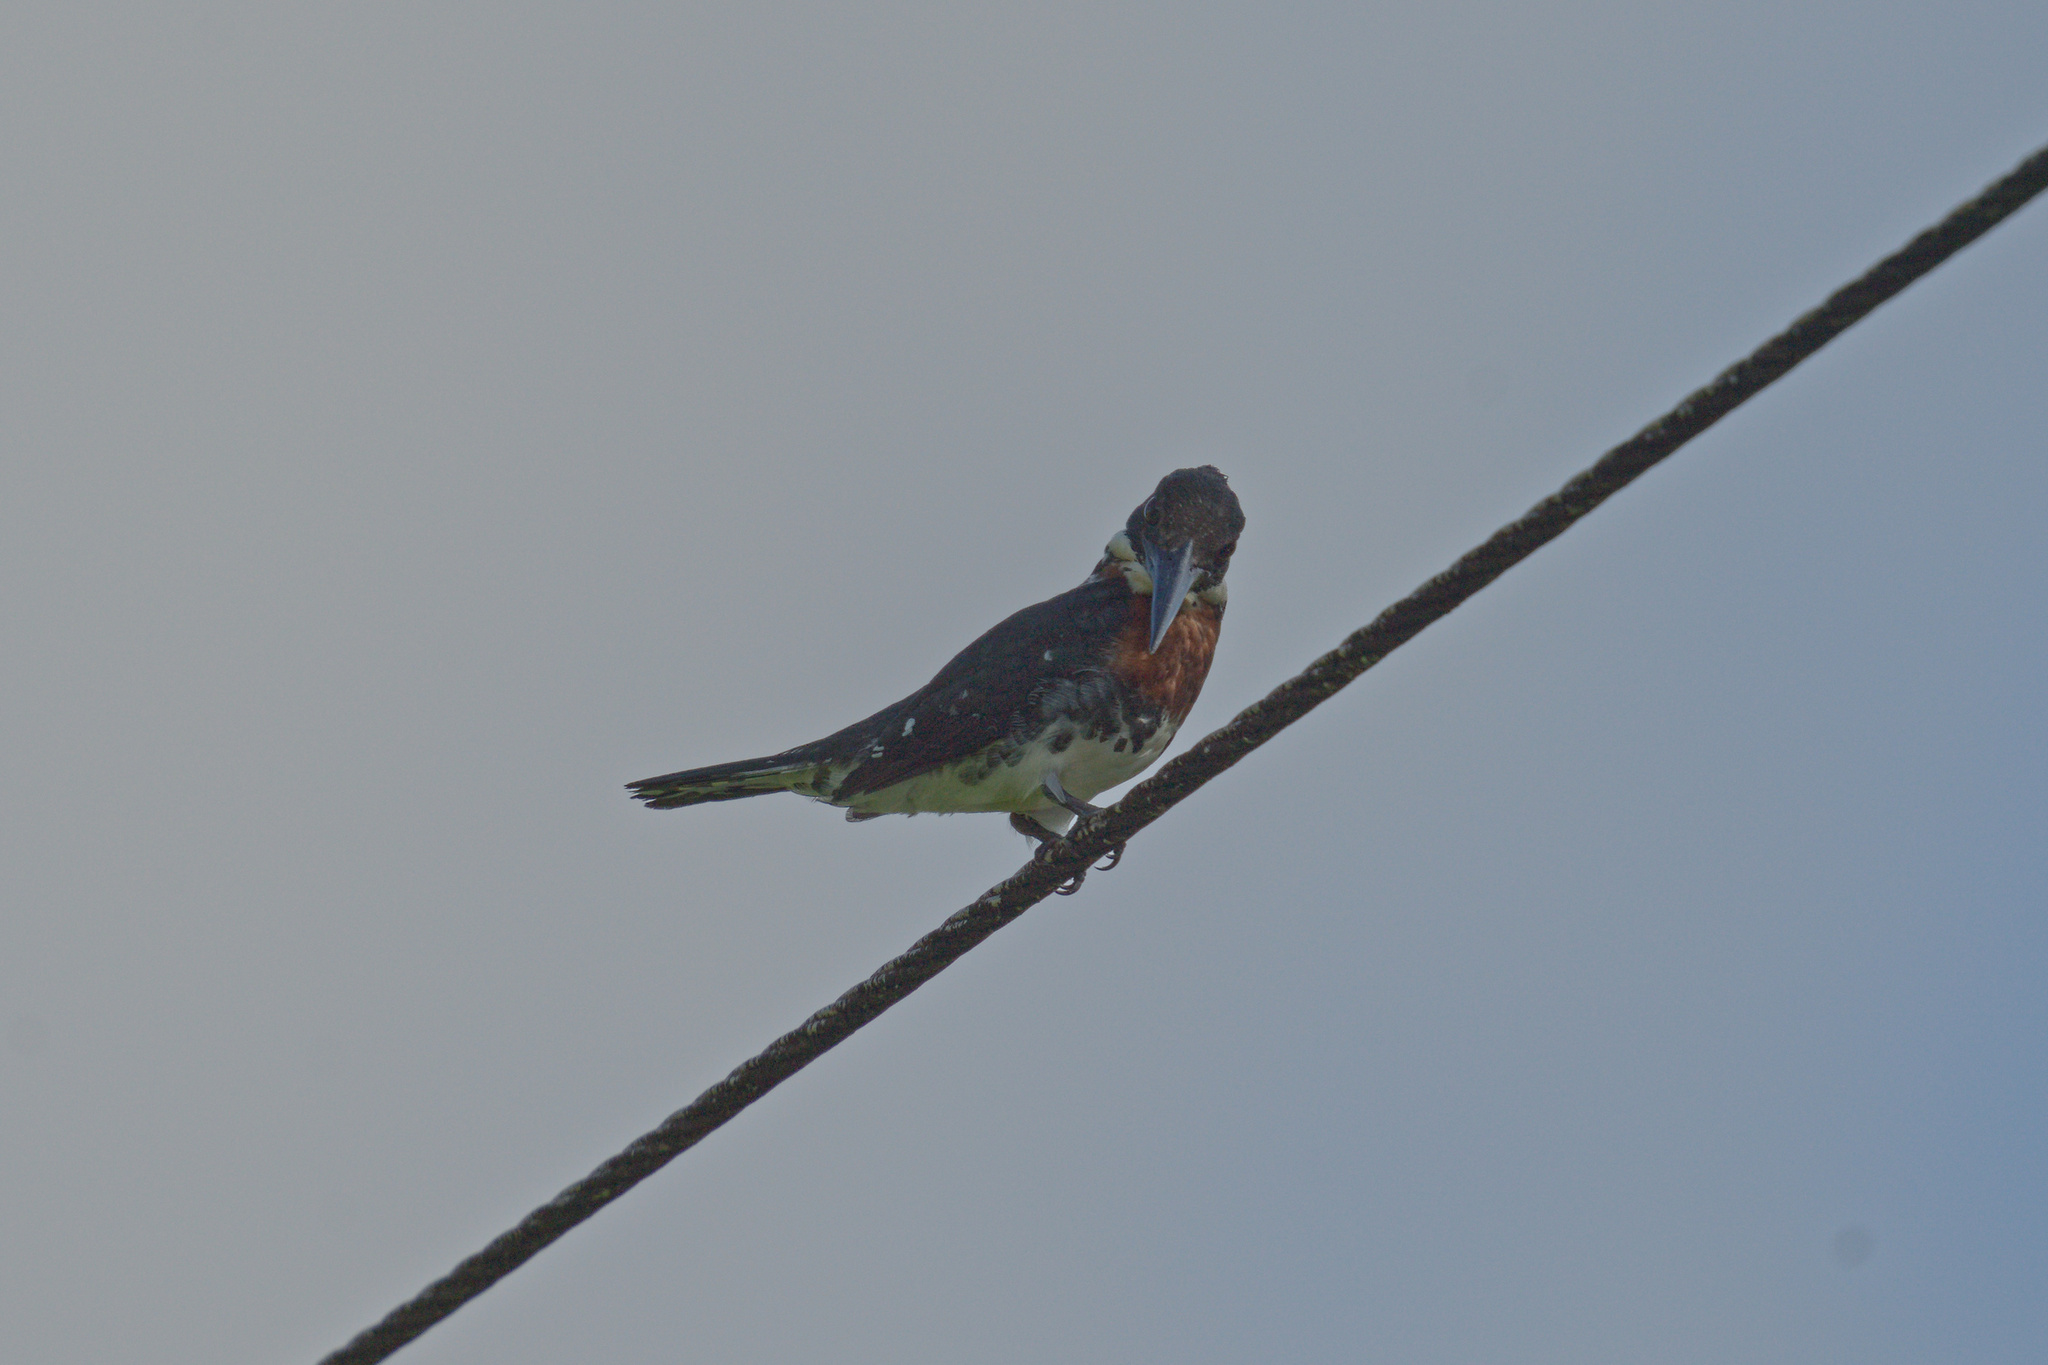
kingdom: Animalia
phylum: Chordata
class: Aves
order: Coraciiformes
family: Alcedinidae
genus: Chloroceryle
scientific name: Chloroceryle americana
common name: Green kingfisher
